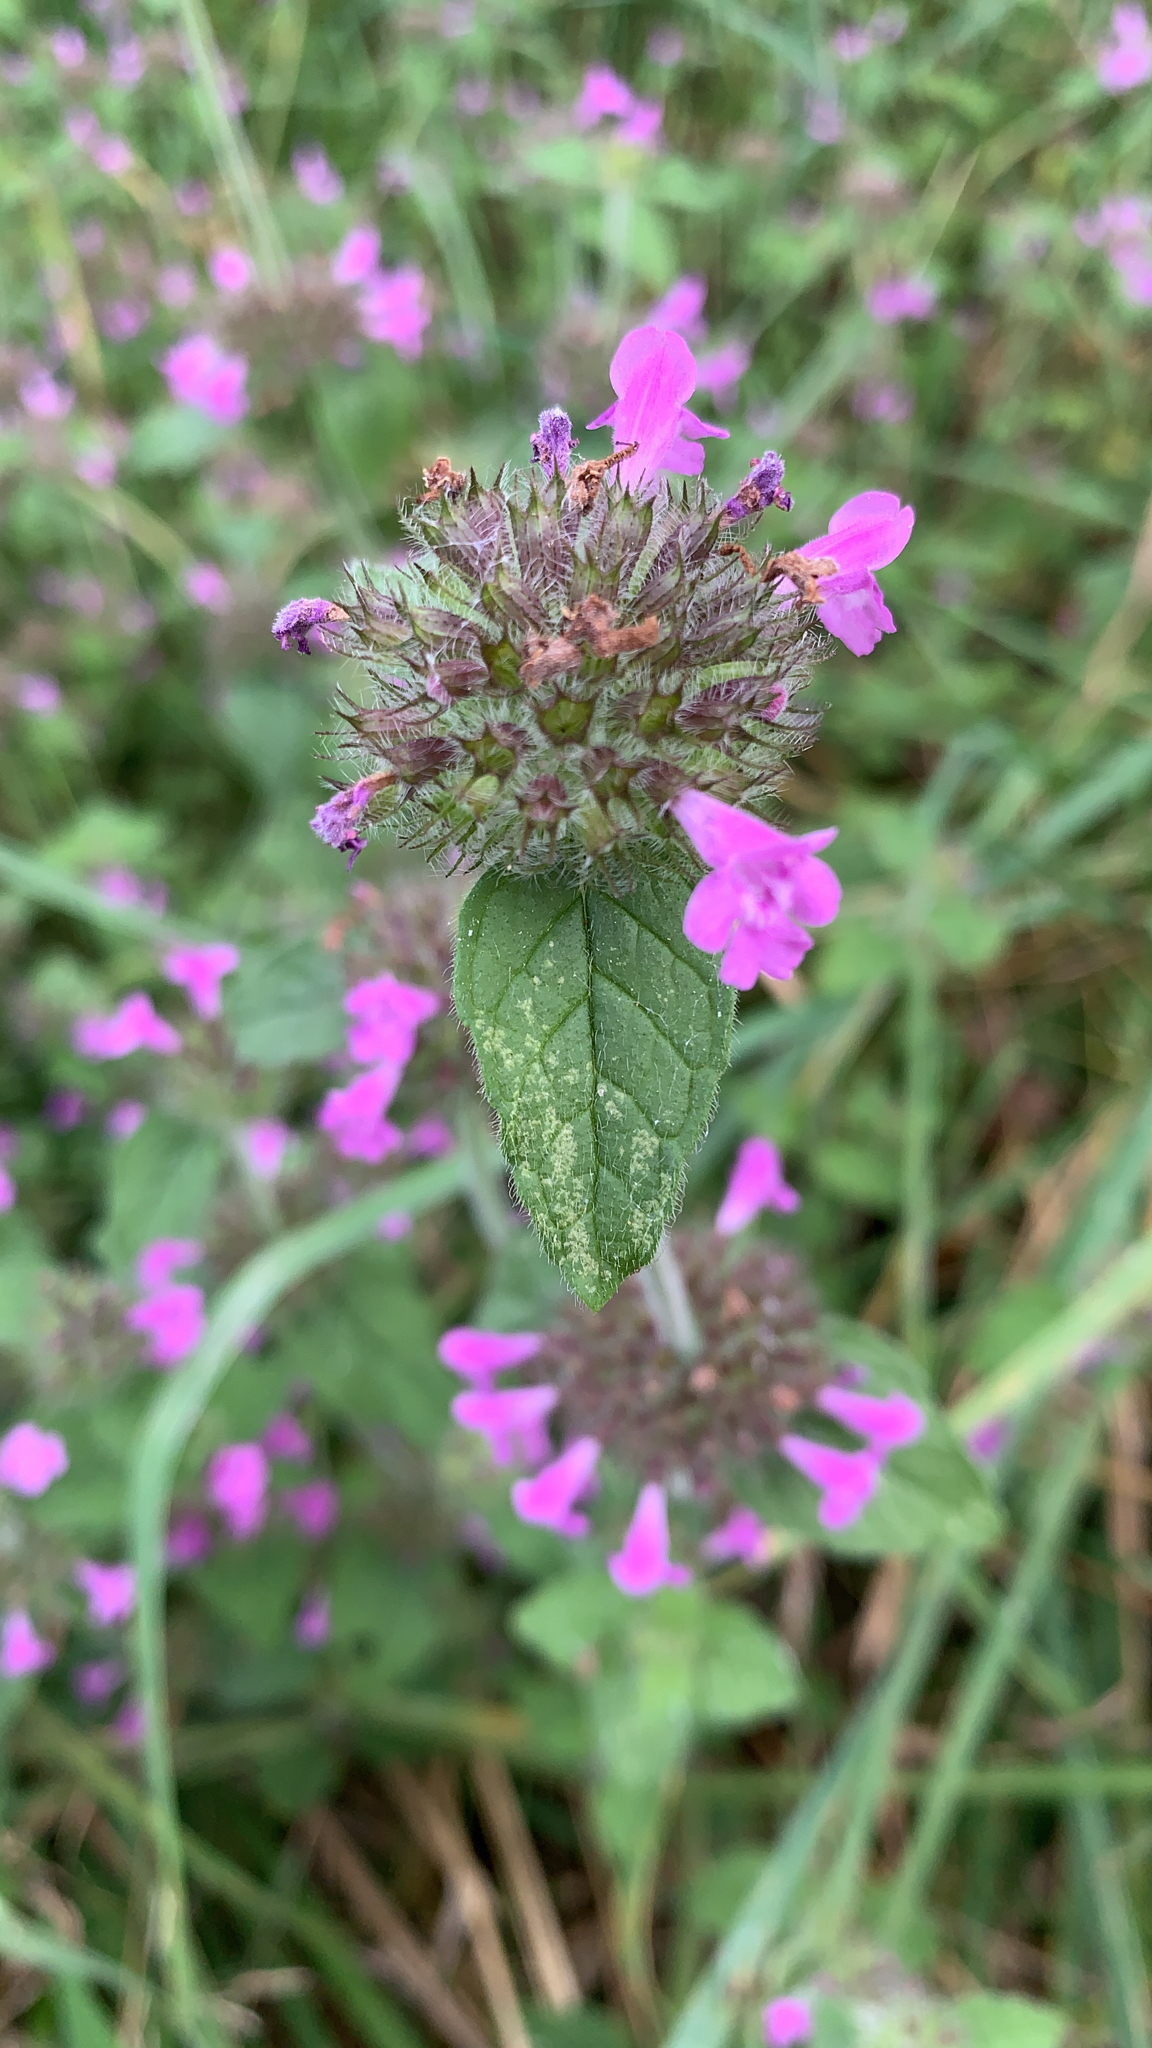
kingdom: Plantae
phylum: Tracheophyta
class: Magnoliopsida
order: Lamiales
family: Lamiaceae
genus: Clinopodium
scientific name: Clinopodium vulgare
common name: Wild basil
